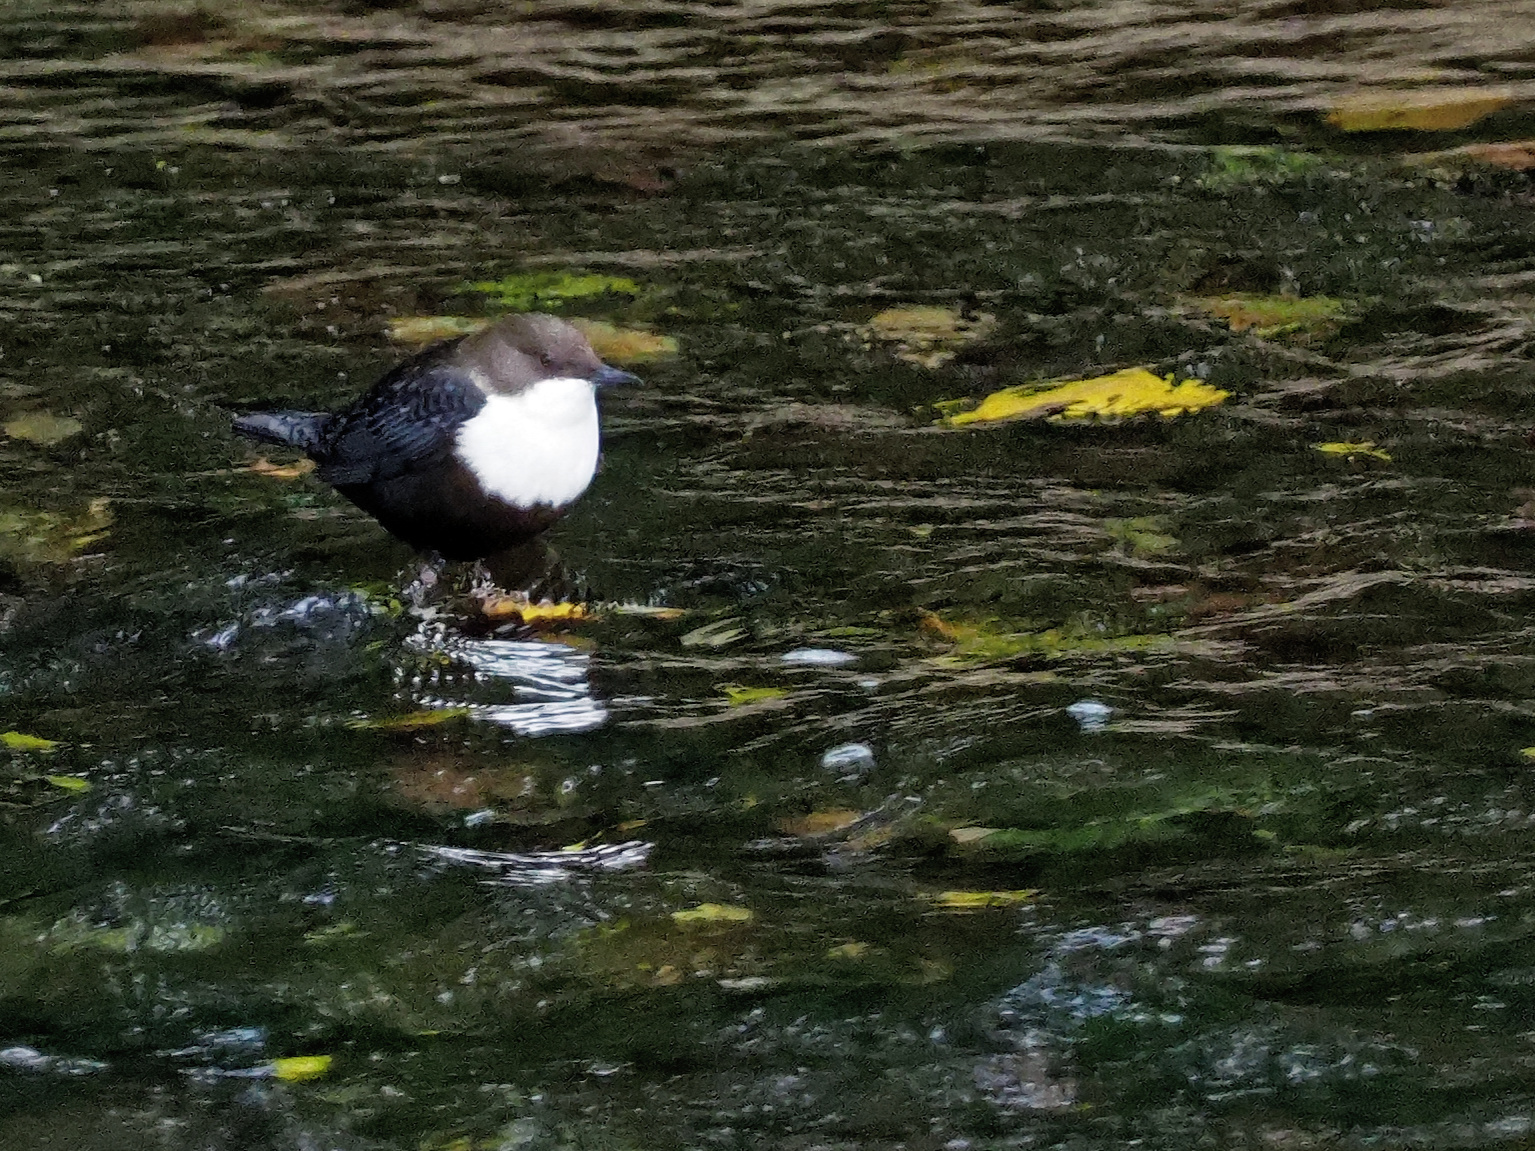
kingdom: Animalia
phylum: Chordata
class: Aves
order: Passeriformes
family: Cinclidae
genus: Cinclus
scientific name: Cinclus cinclus
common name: White-throated dipper
